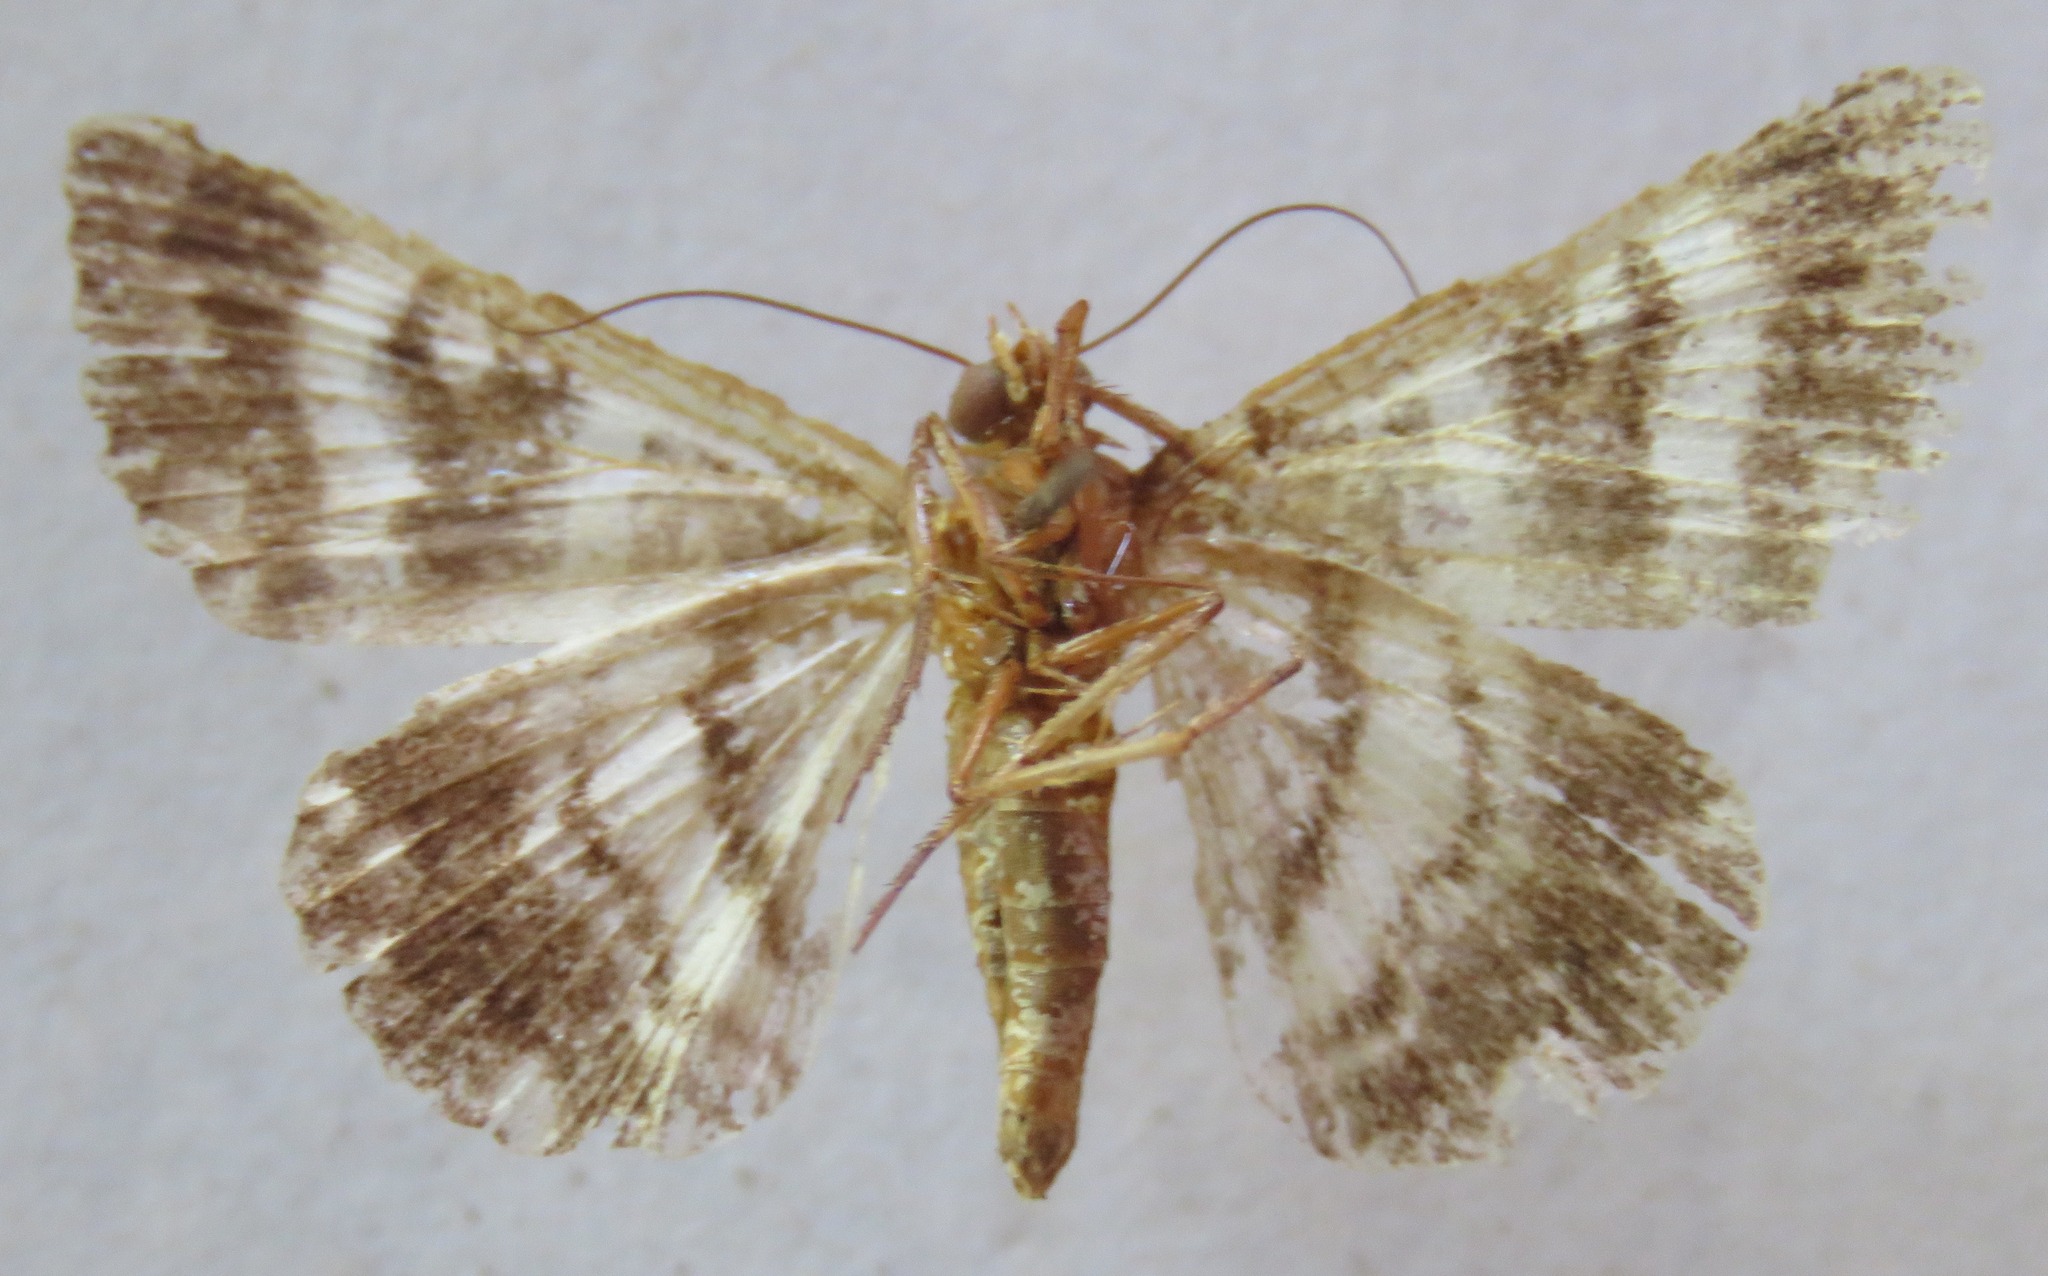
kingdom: Animalia
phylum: Arthropoda
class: Insecta
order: Lepidoptera
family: Erebidae
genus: Grammodes
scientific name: Grammodes stolida
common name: Geometrician
